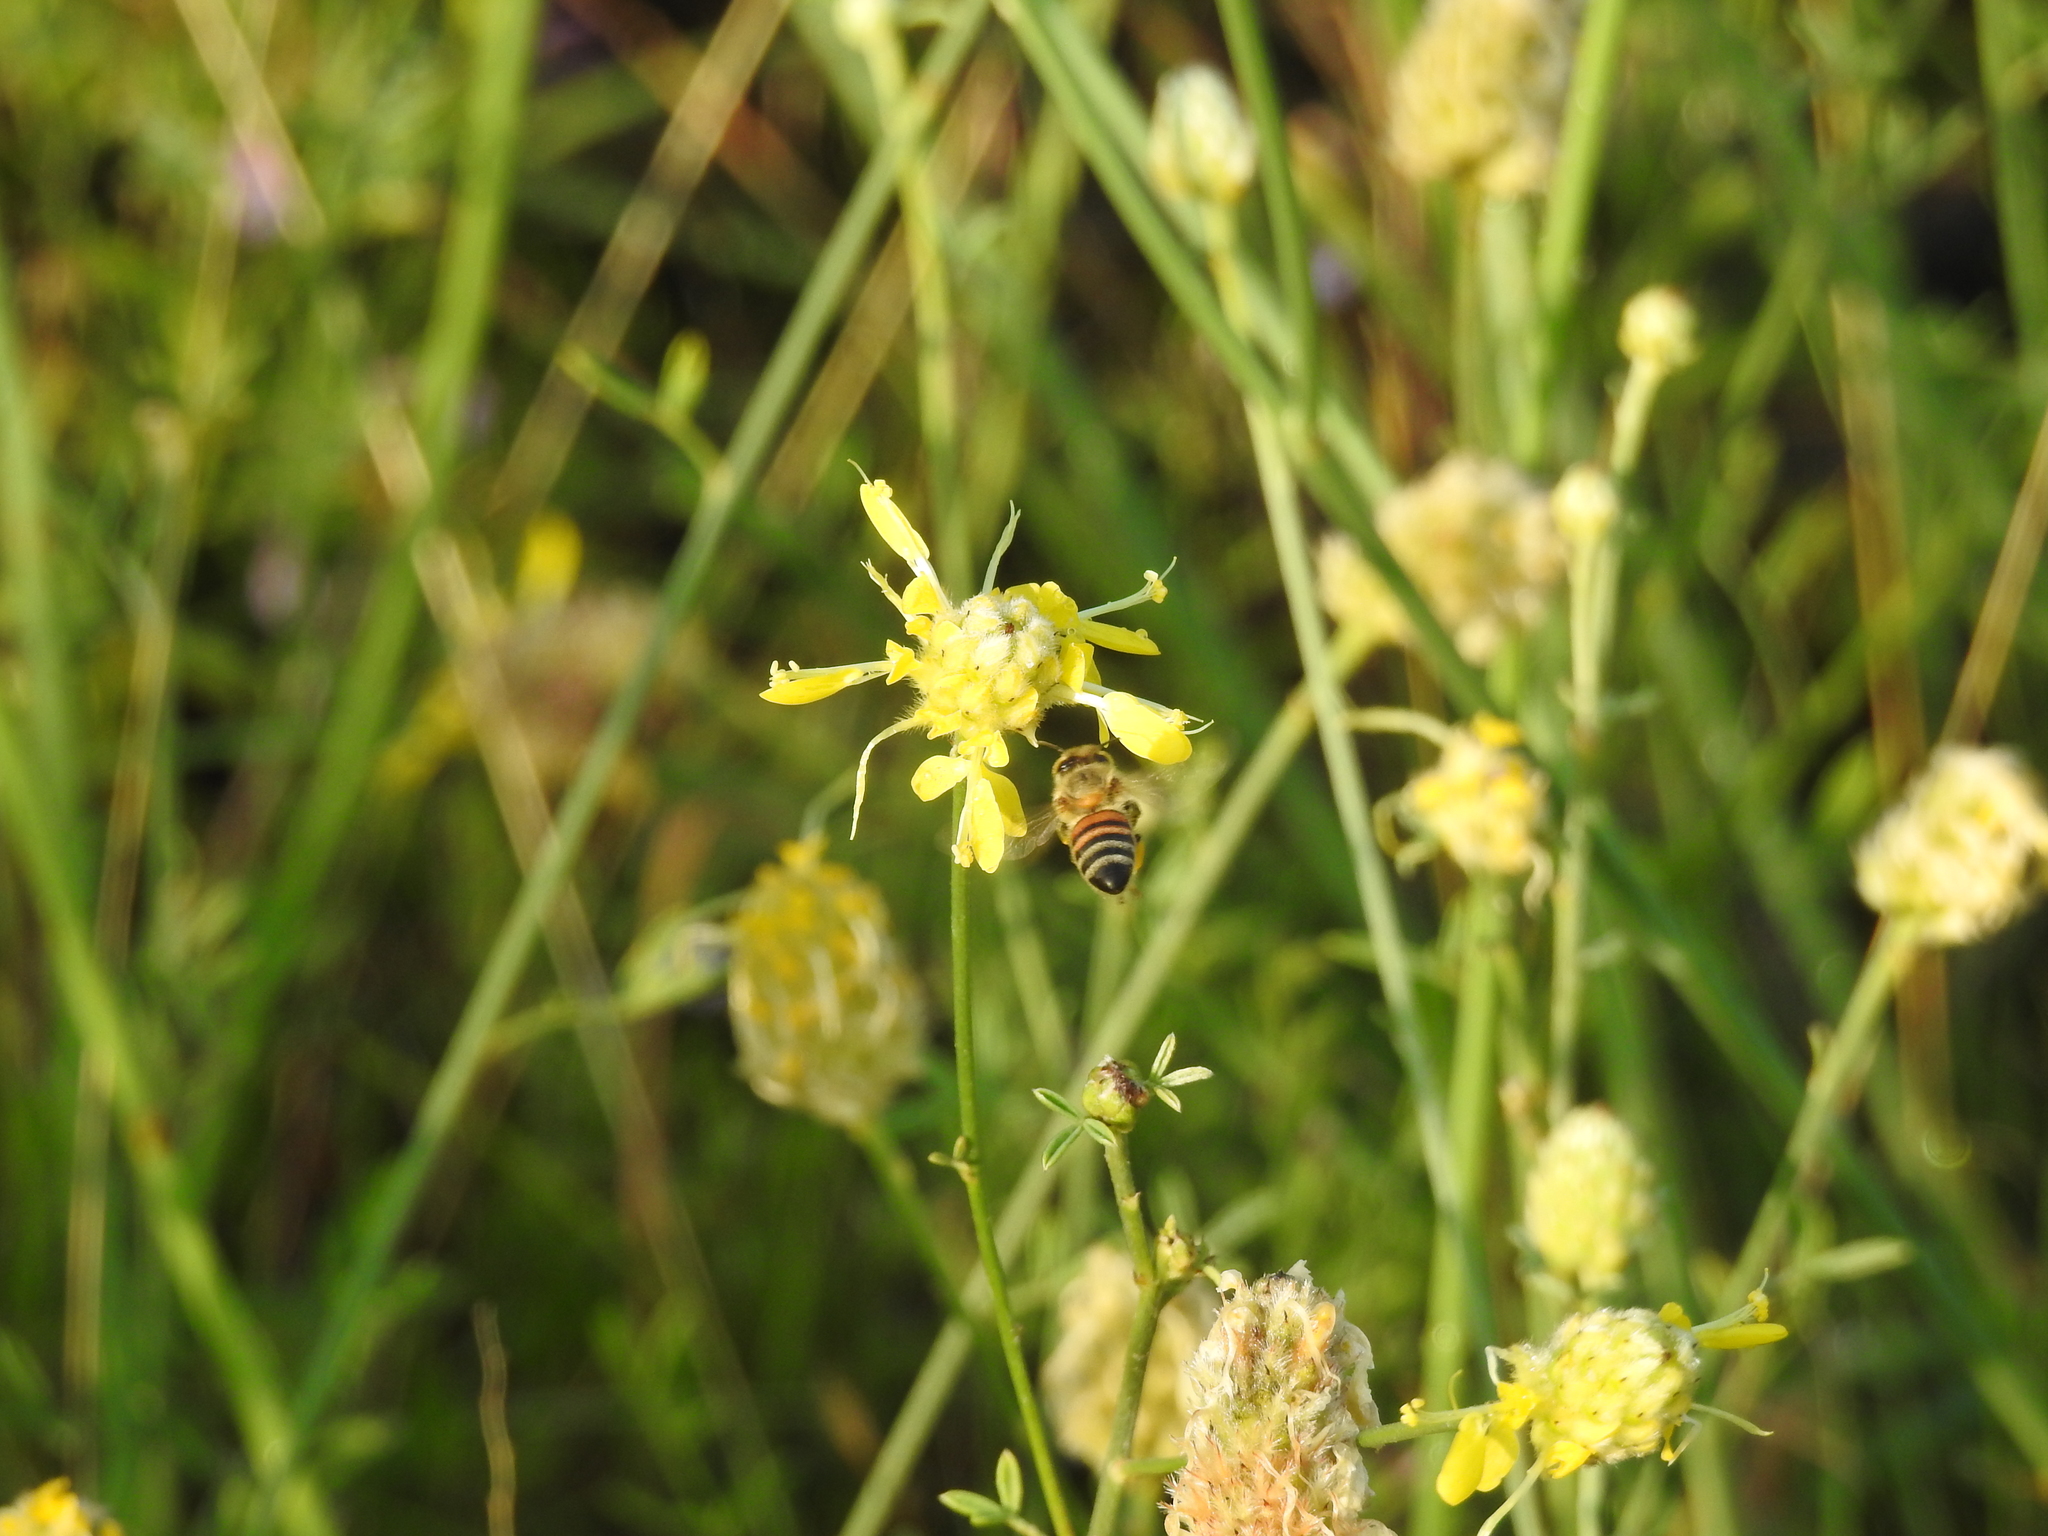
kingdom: Animalia
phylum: Arthropoda
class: Insecta
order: Hymenoptera
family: Apidae
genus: Apis
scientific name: Apis mellifera
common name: Honey bee
